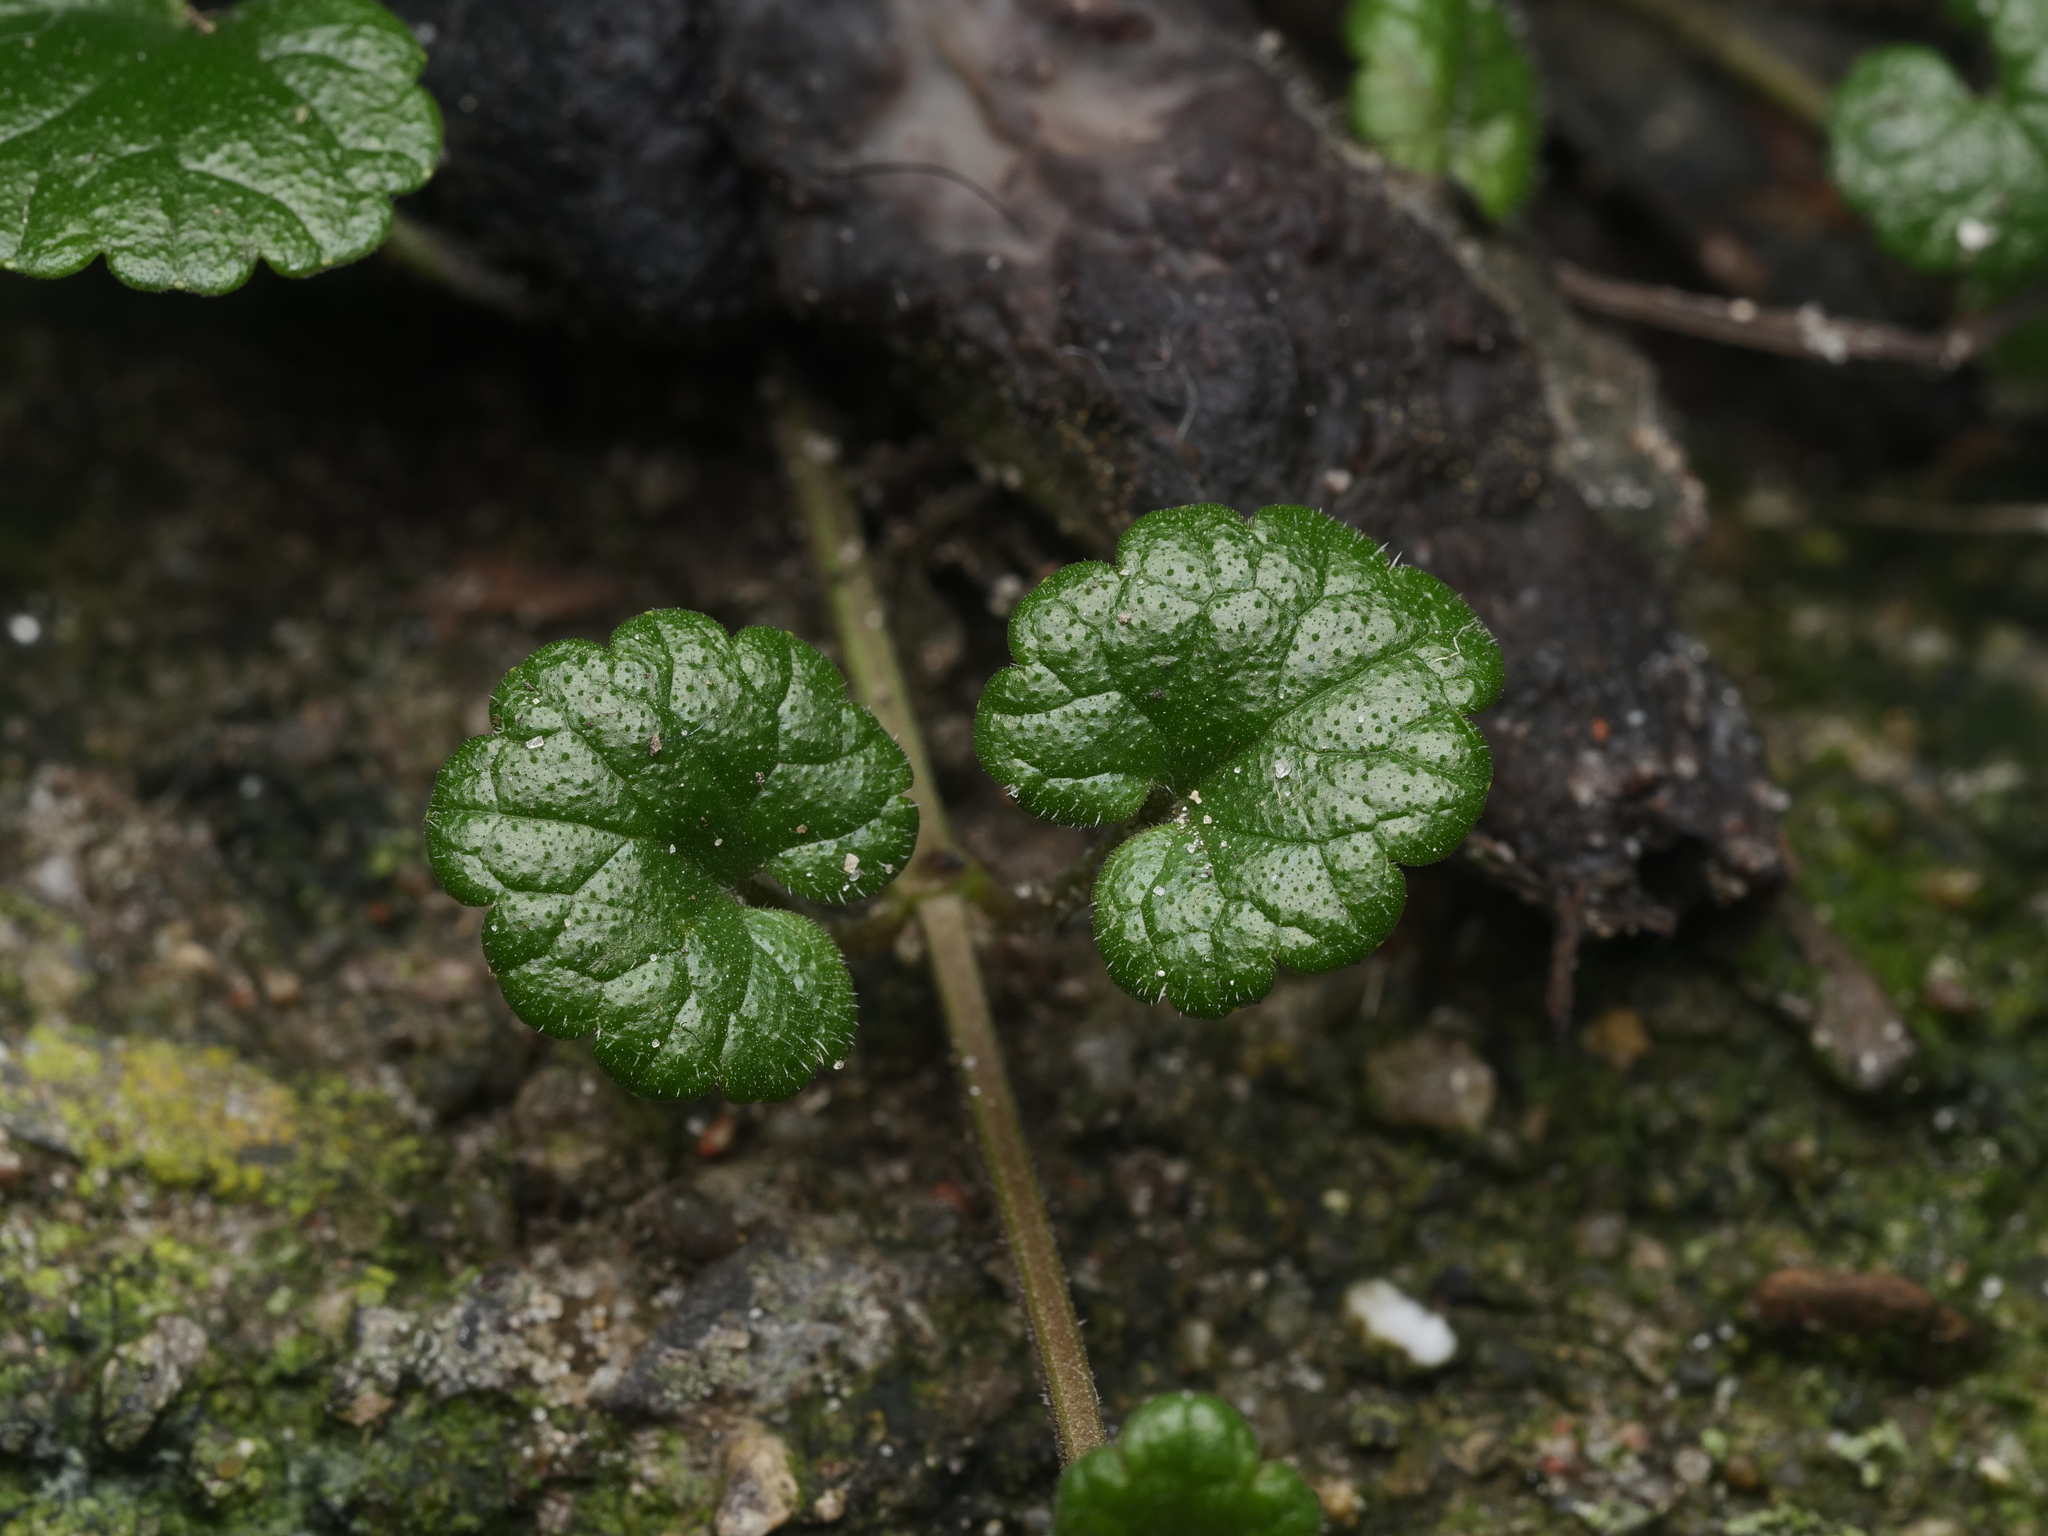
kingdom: Plantae
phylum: Tracheophyta
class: Magnoliopsida
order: Lamiales
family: Lamiaceae
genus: Glechoma
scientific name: Glechoma hederacea
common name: Ground ivy
